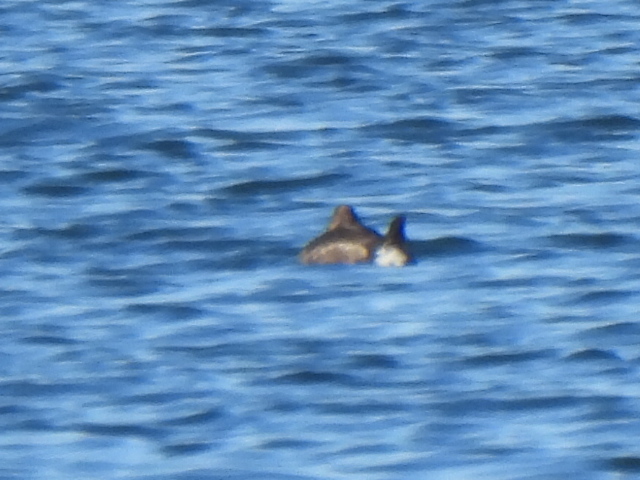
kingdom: Animalia
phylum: Chordata
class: Aves
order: Anseriformes
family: Anatidae
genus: Oxyura
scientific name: Oxyura jamaicensis
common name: Ruddy duck
